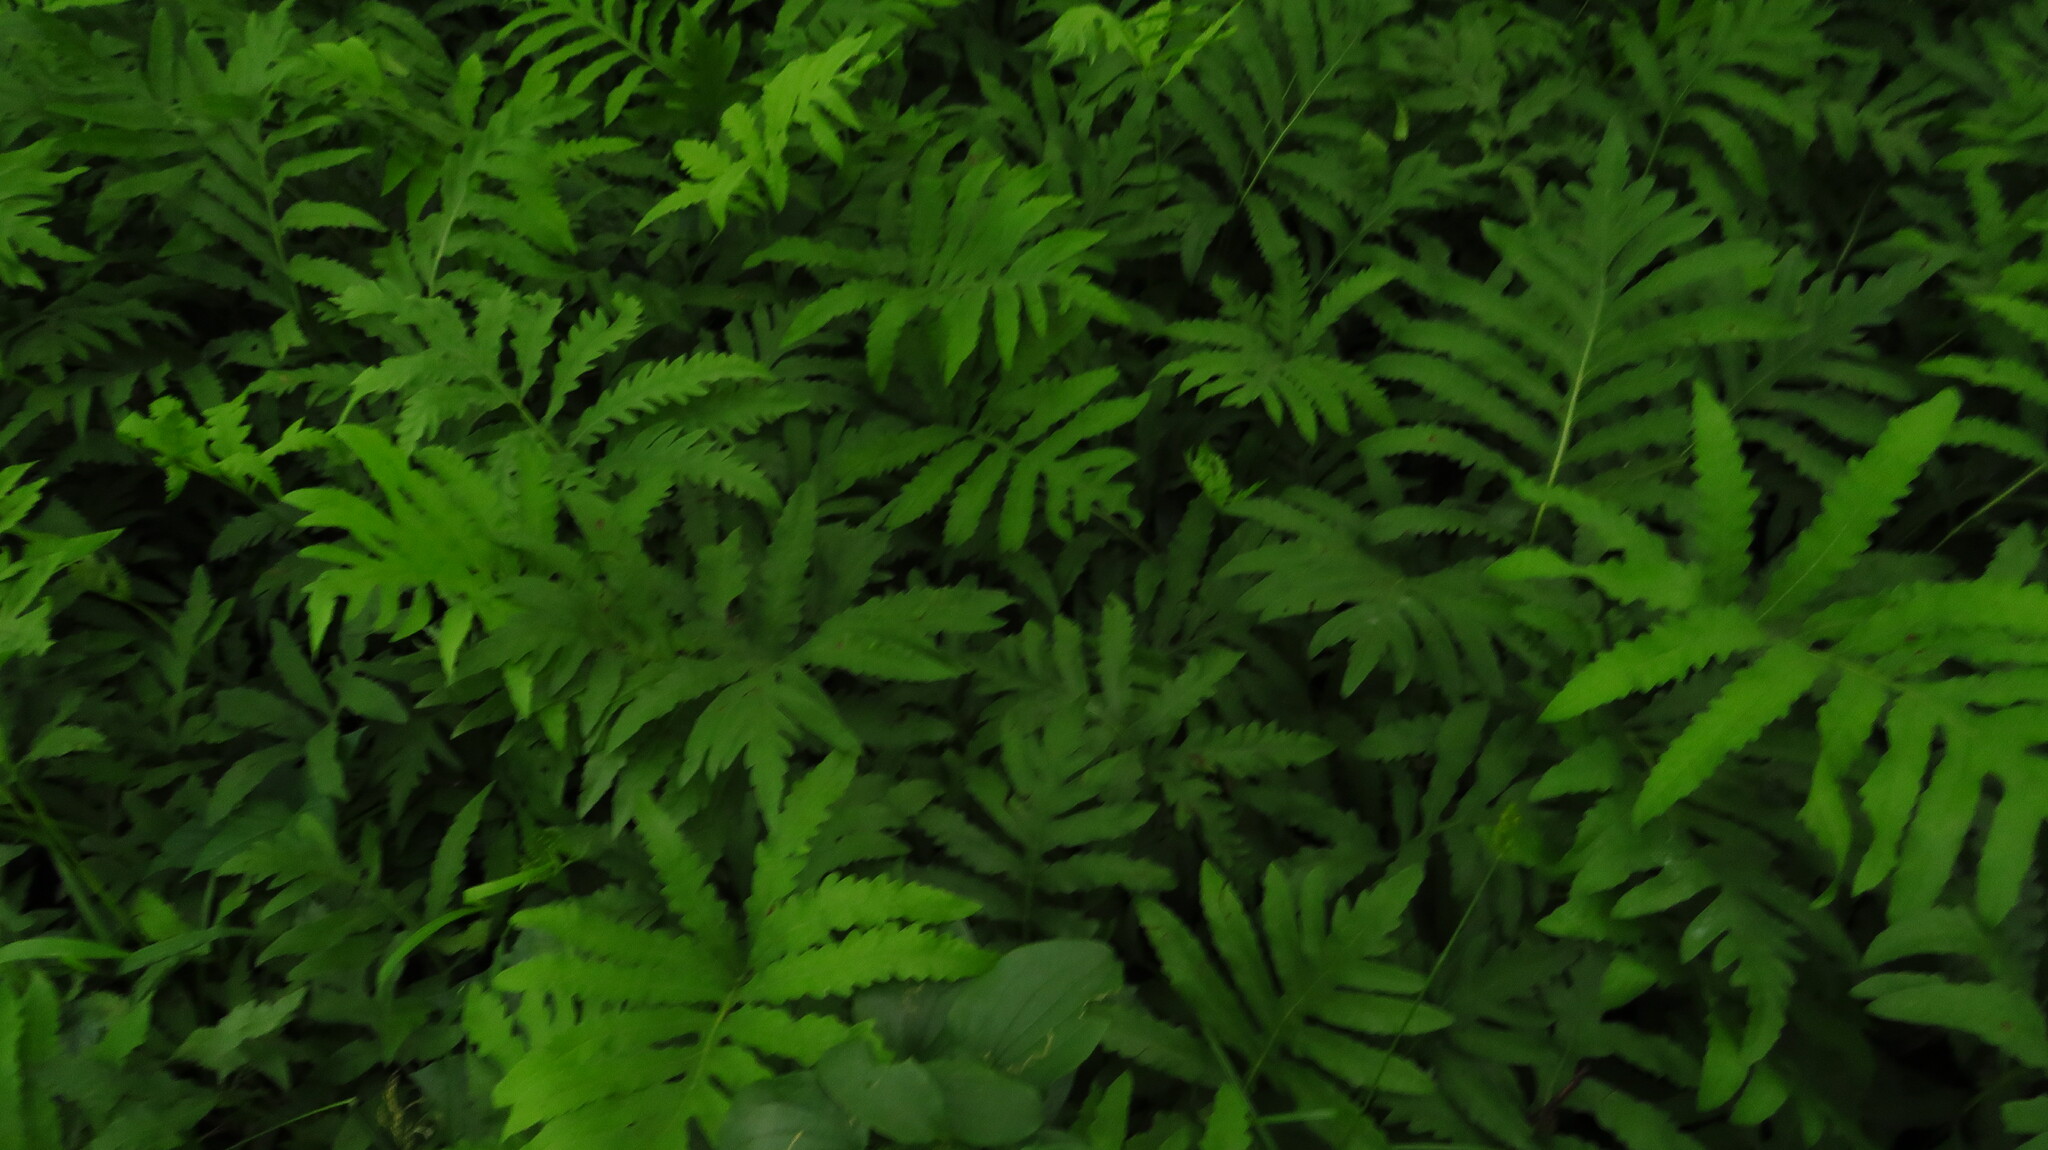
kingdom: Plantae
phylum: Tracheophyta
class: Polypodiopsida
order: Polypodiales
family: Onocleaceae
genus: Onoclea
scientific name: Onoclea sensibilis
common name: Sensitive fern
